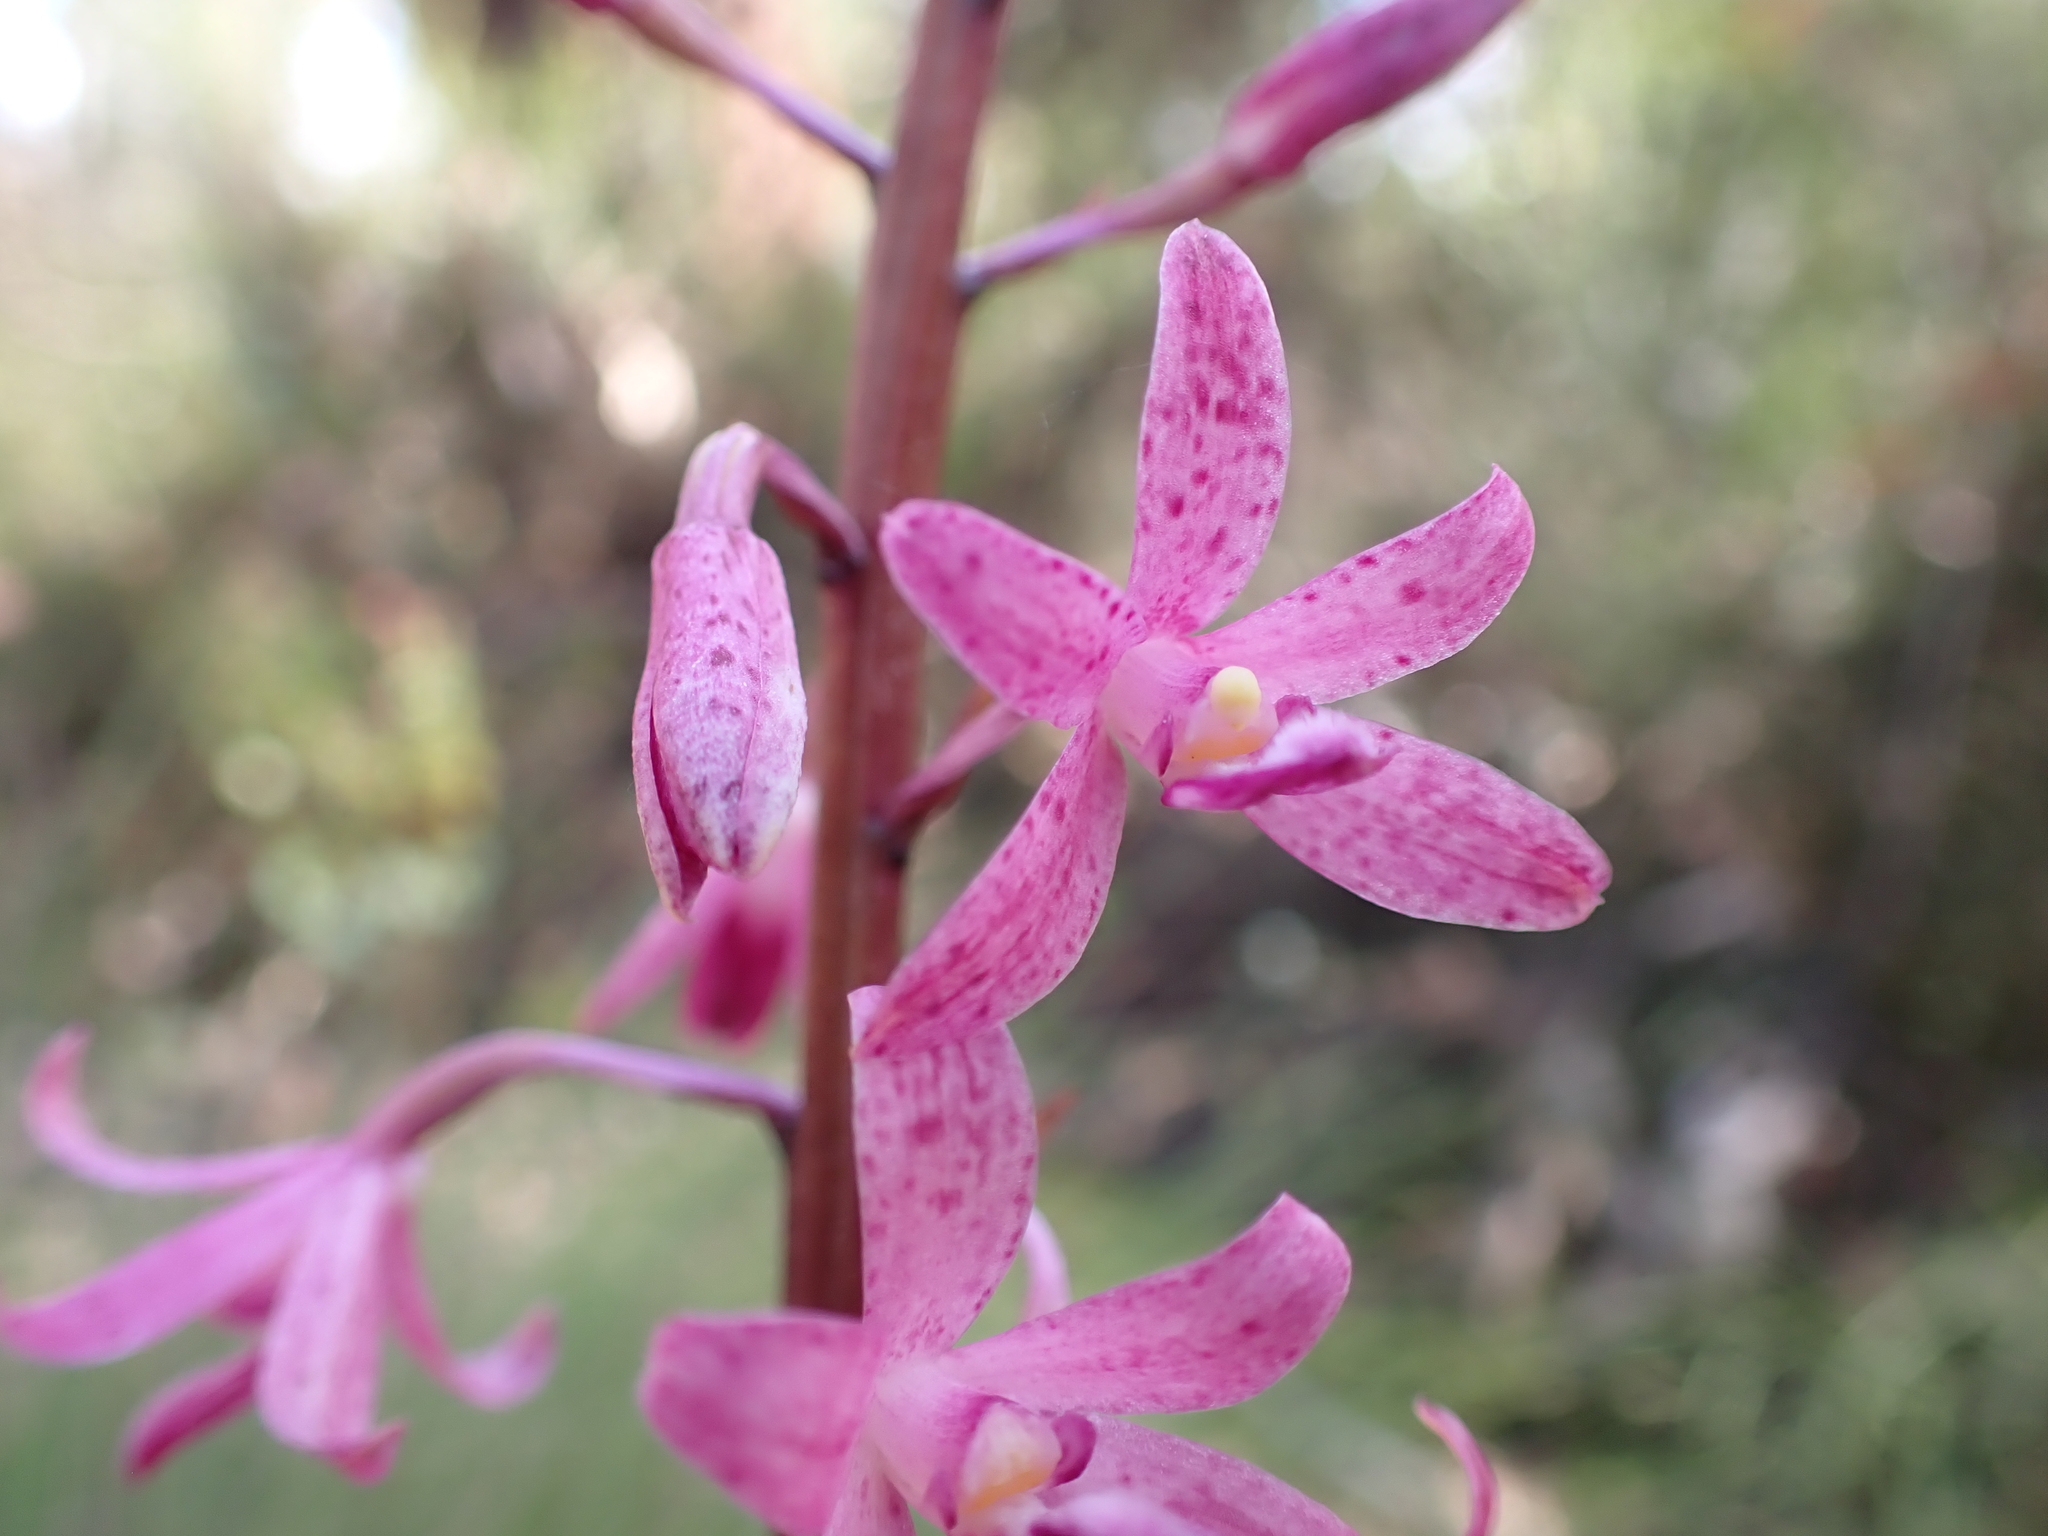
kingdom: Plantae
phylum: Tracheophyta
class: Liliopsida
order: Asparagales
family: Orchidaceae
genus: Dipodium
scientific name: Dipodium roseum
